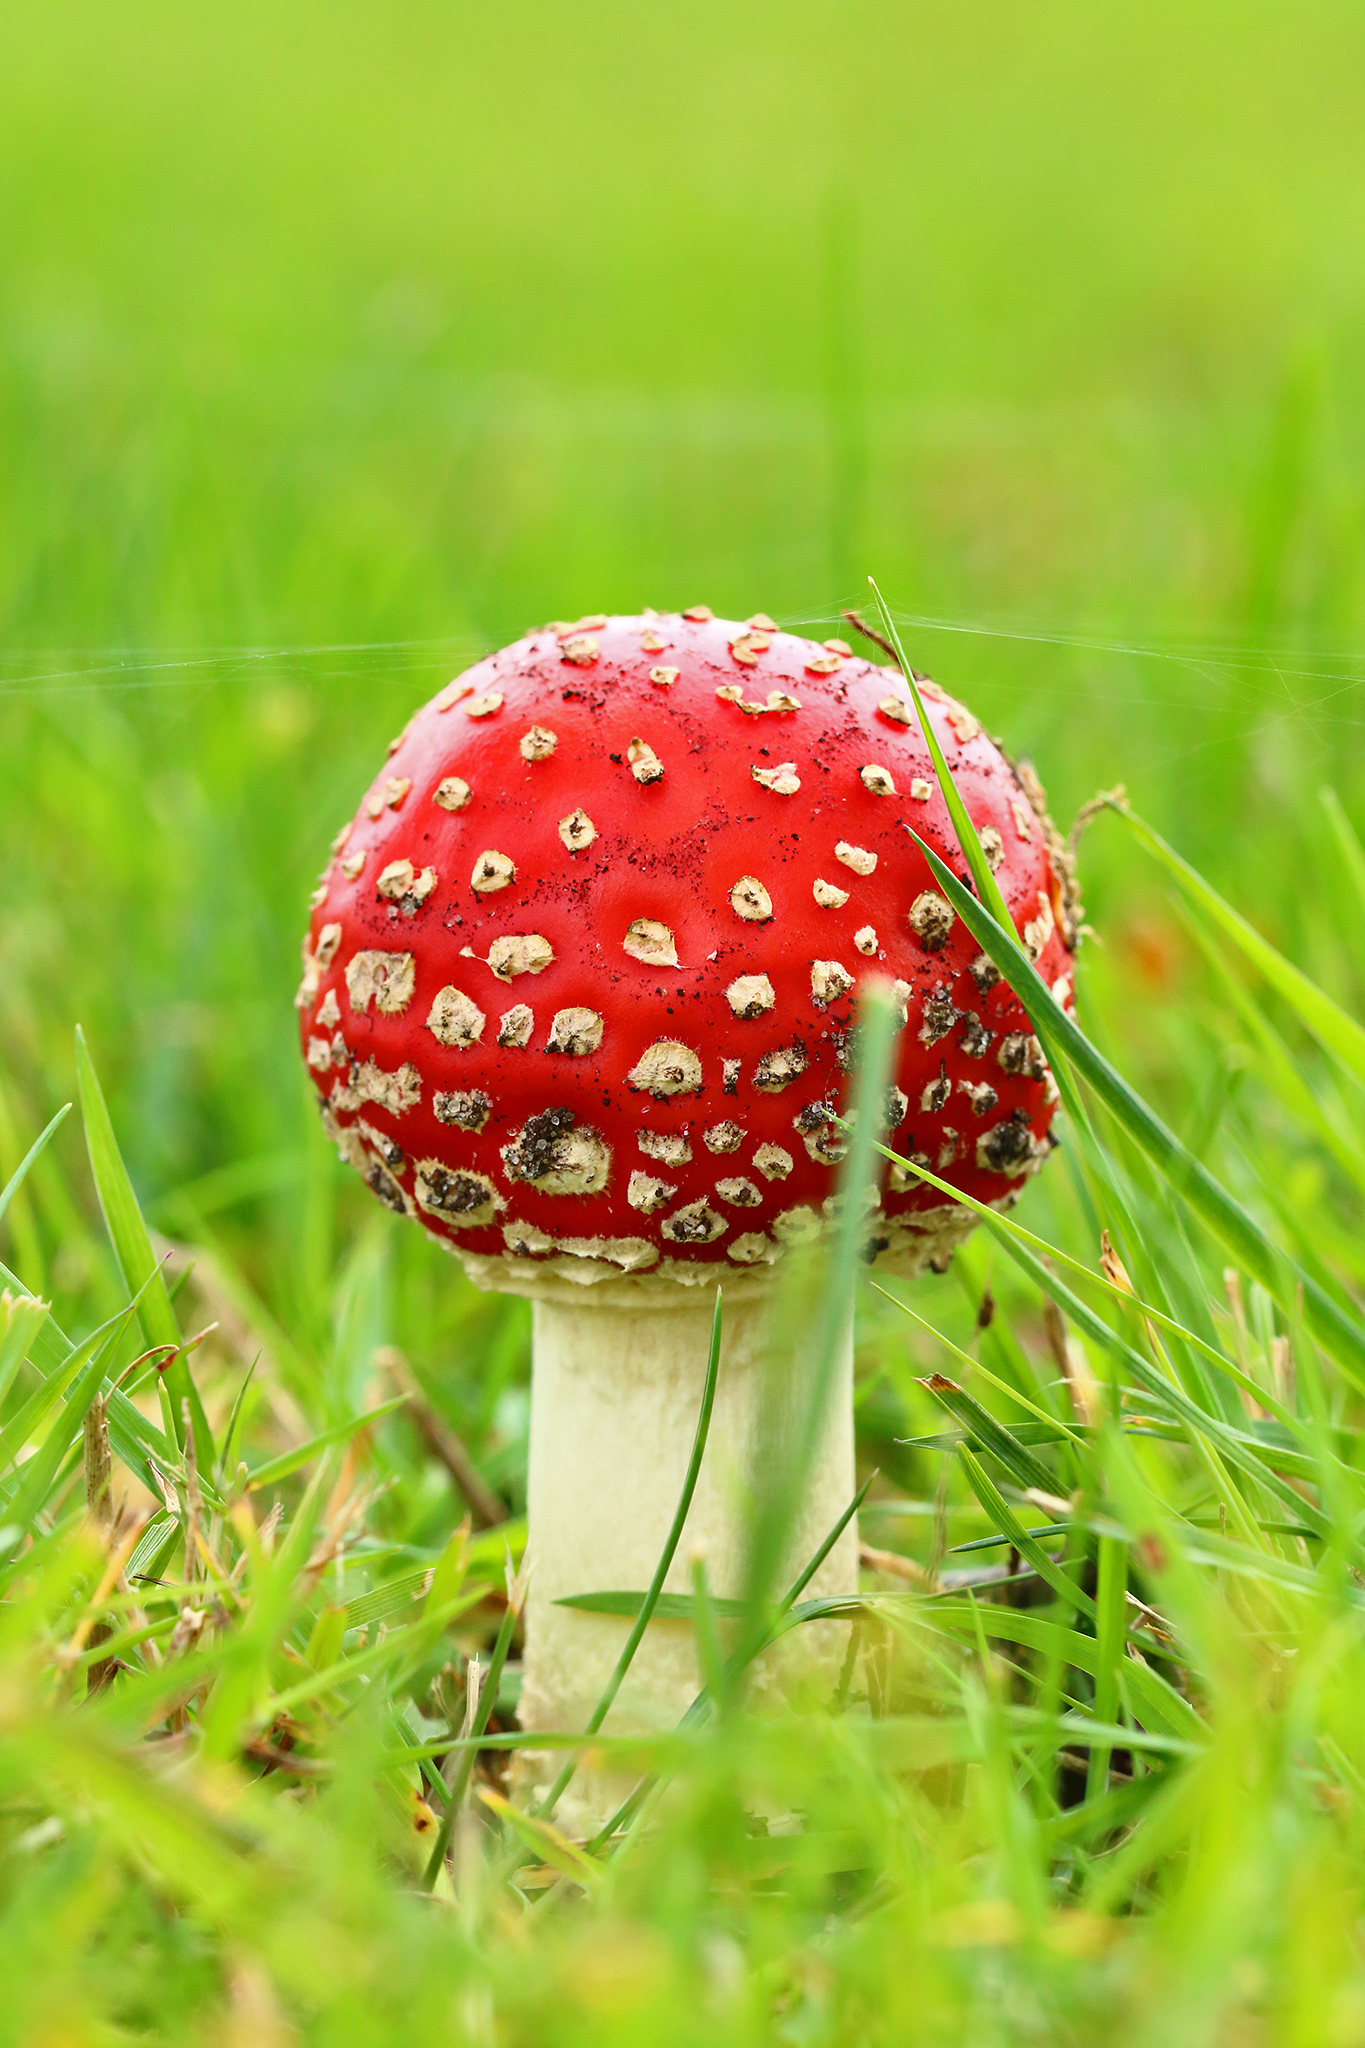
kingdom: Fungi
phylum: Basidiomycota
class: Agaricomycetes
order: Agaricales
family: Amanitaceae
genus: Amanita
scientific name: Amanita muscaria
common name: Fly agaric
